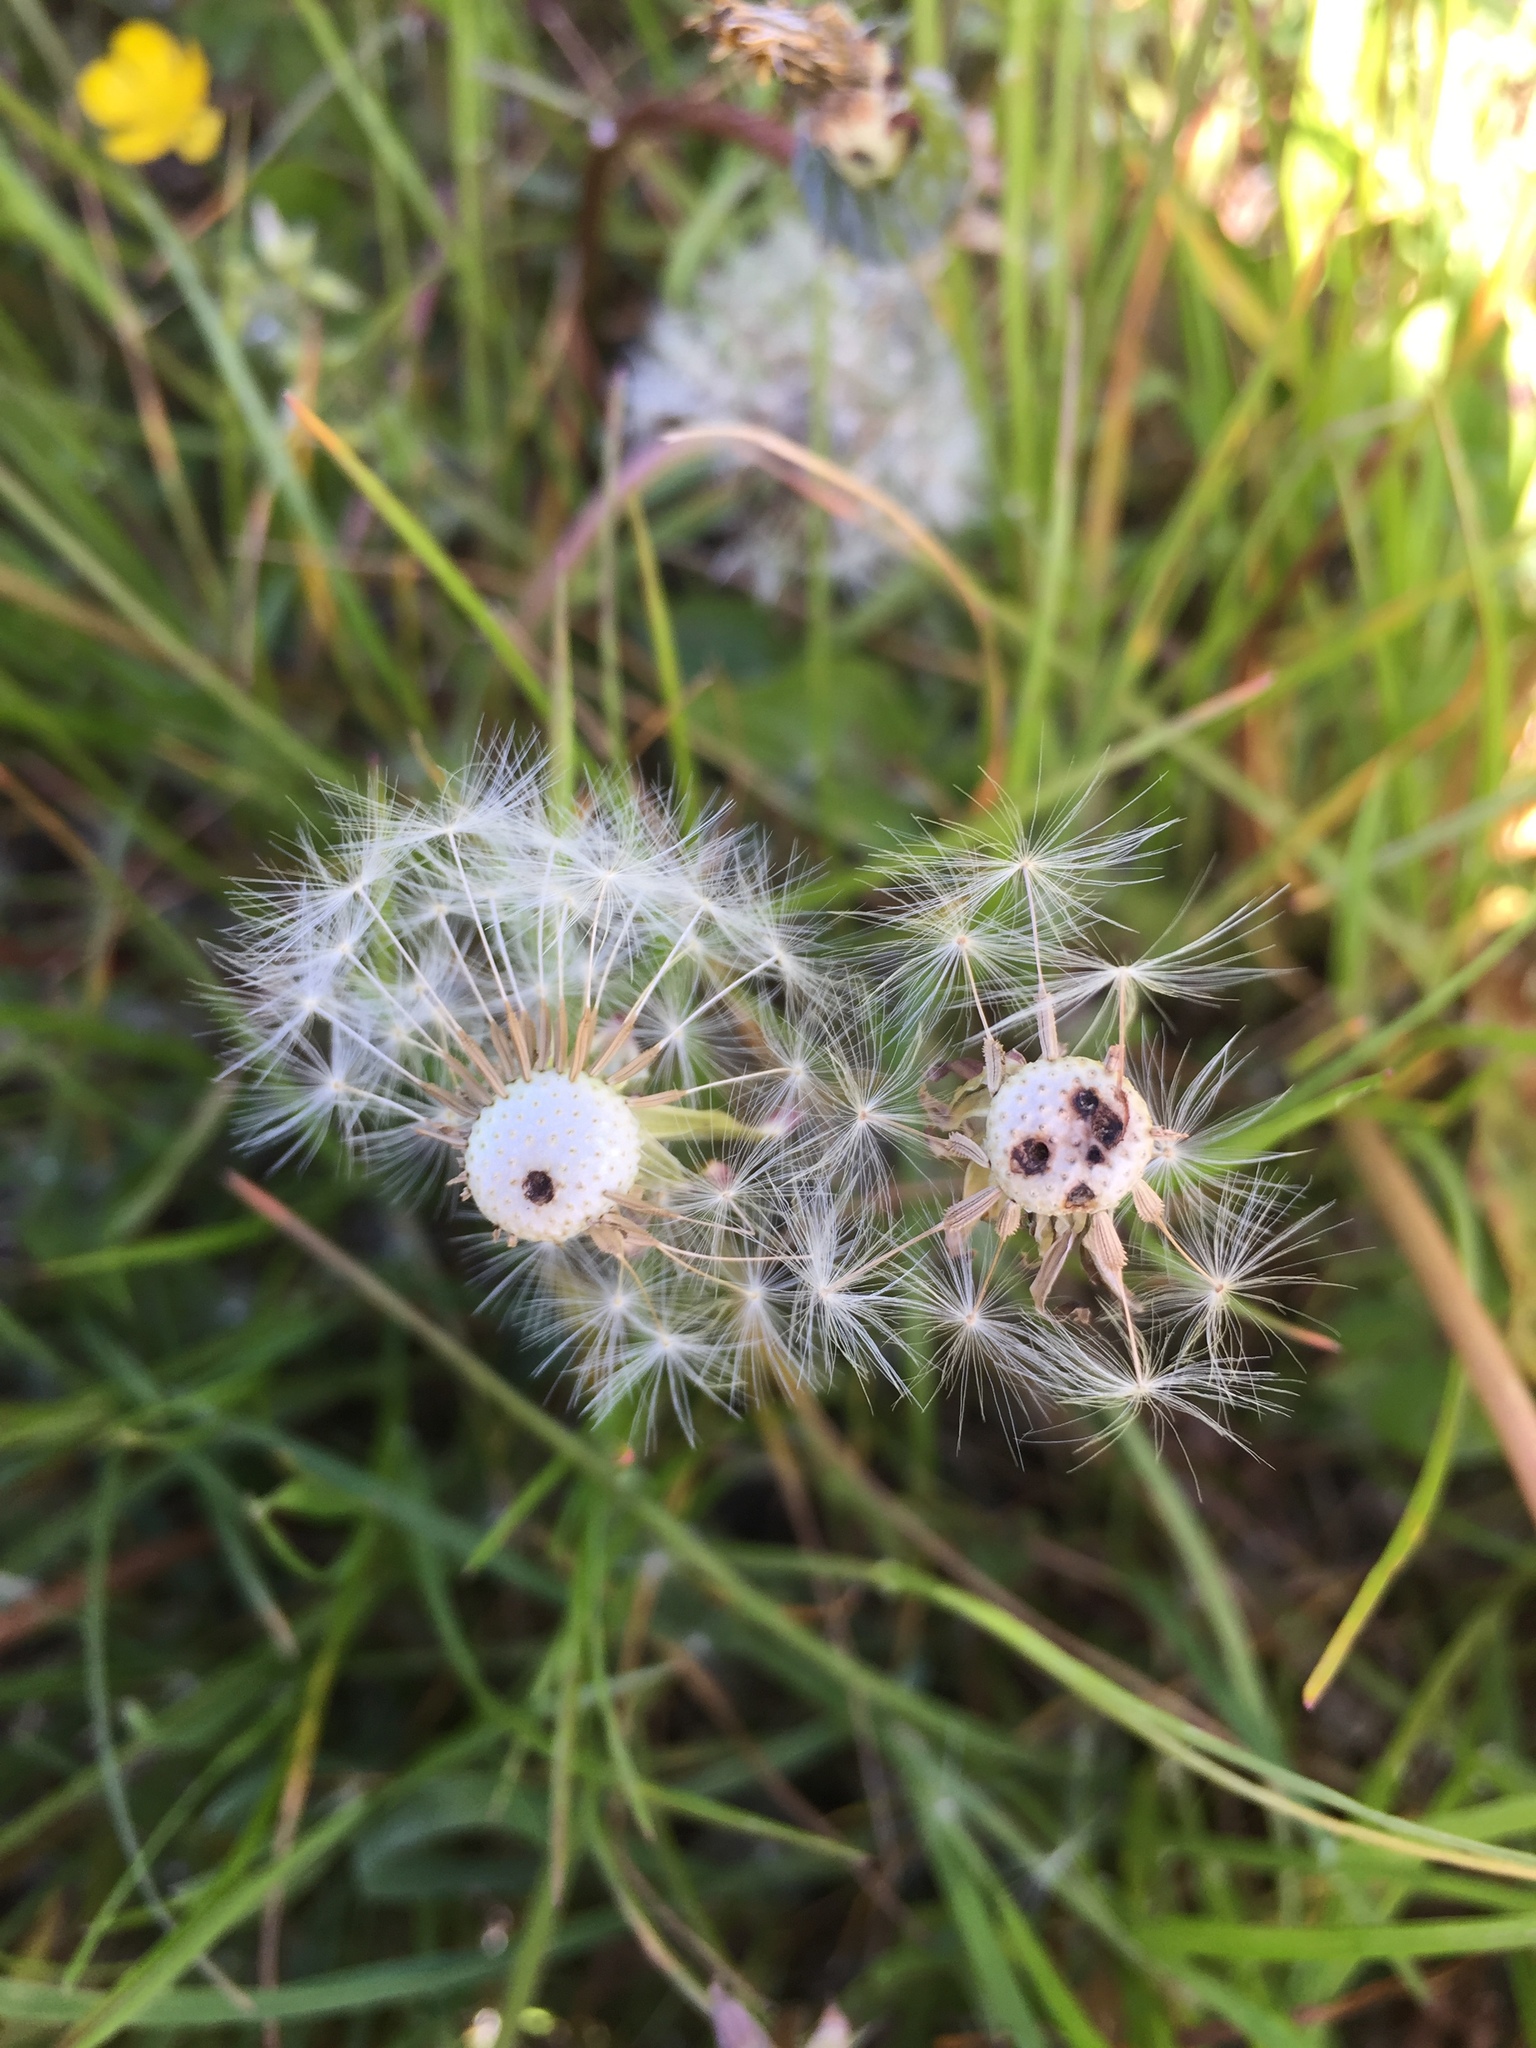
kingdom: Animalia
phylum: Arthropoda
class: Insecta
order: Coleoptera
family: Curculionidae
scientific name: Curculionidae
